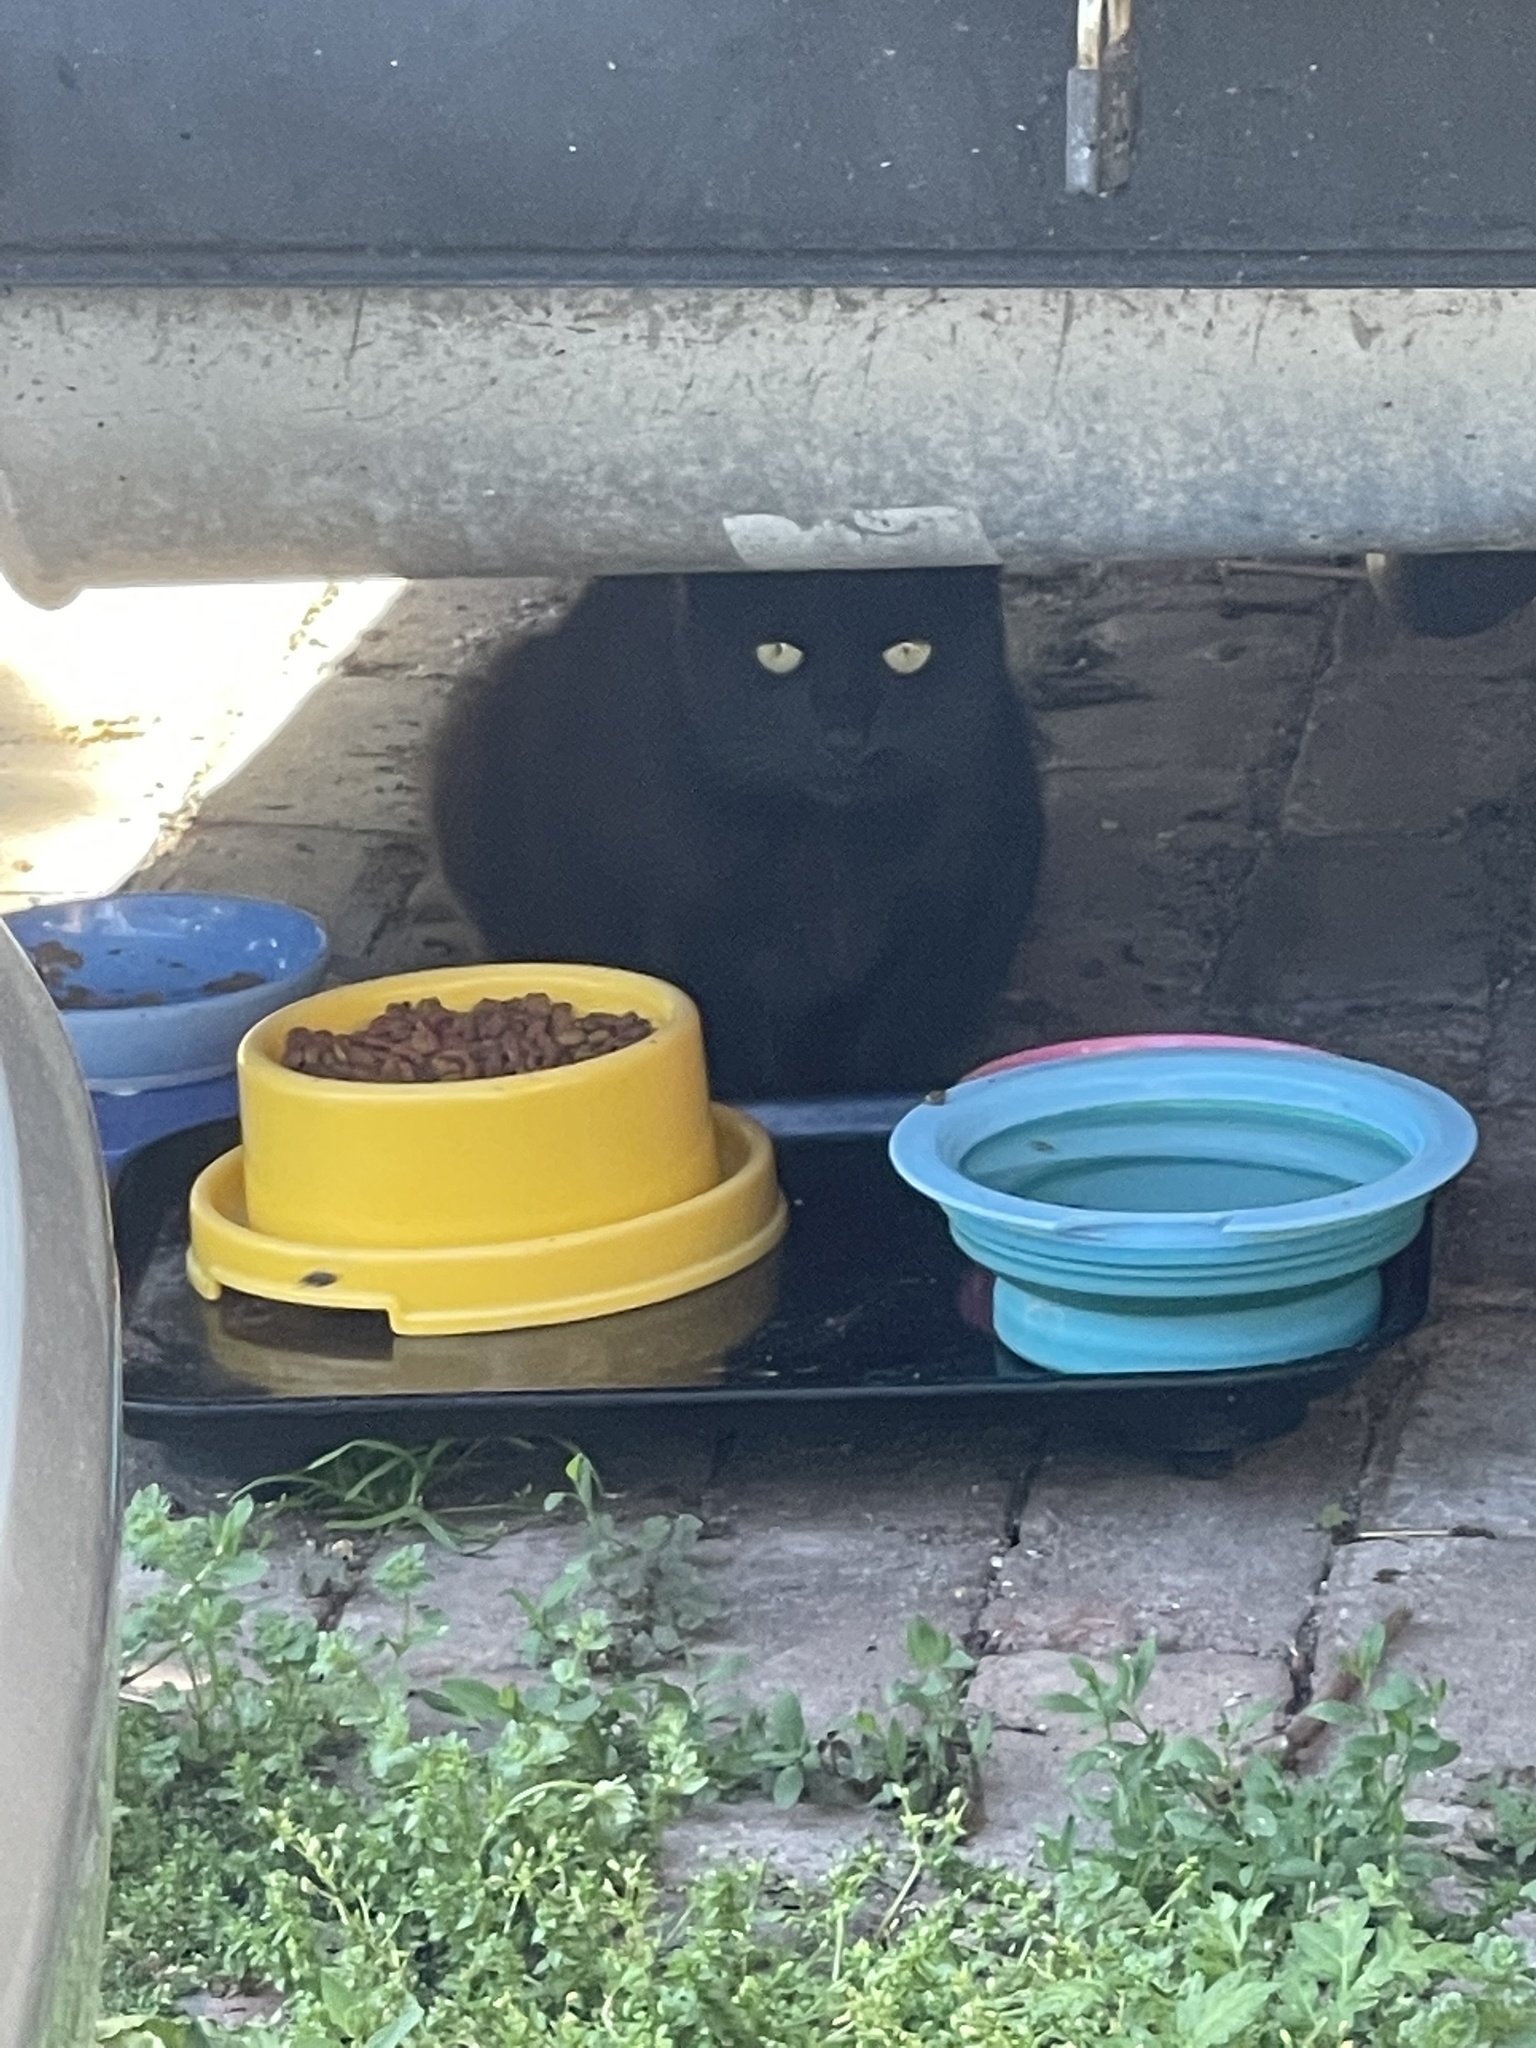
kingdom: Animalia
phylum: Chordata
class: Mammalia
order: Carnivora
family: Felidae
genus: Felis
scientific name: Felis catus
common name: Domestic cat
